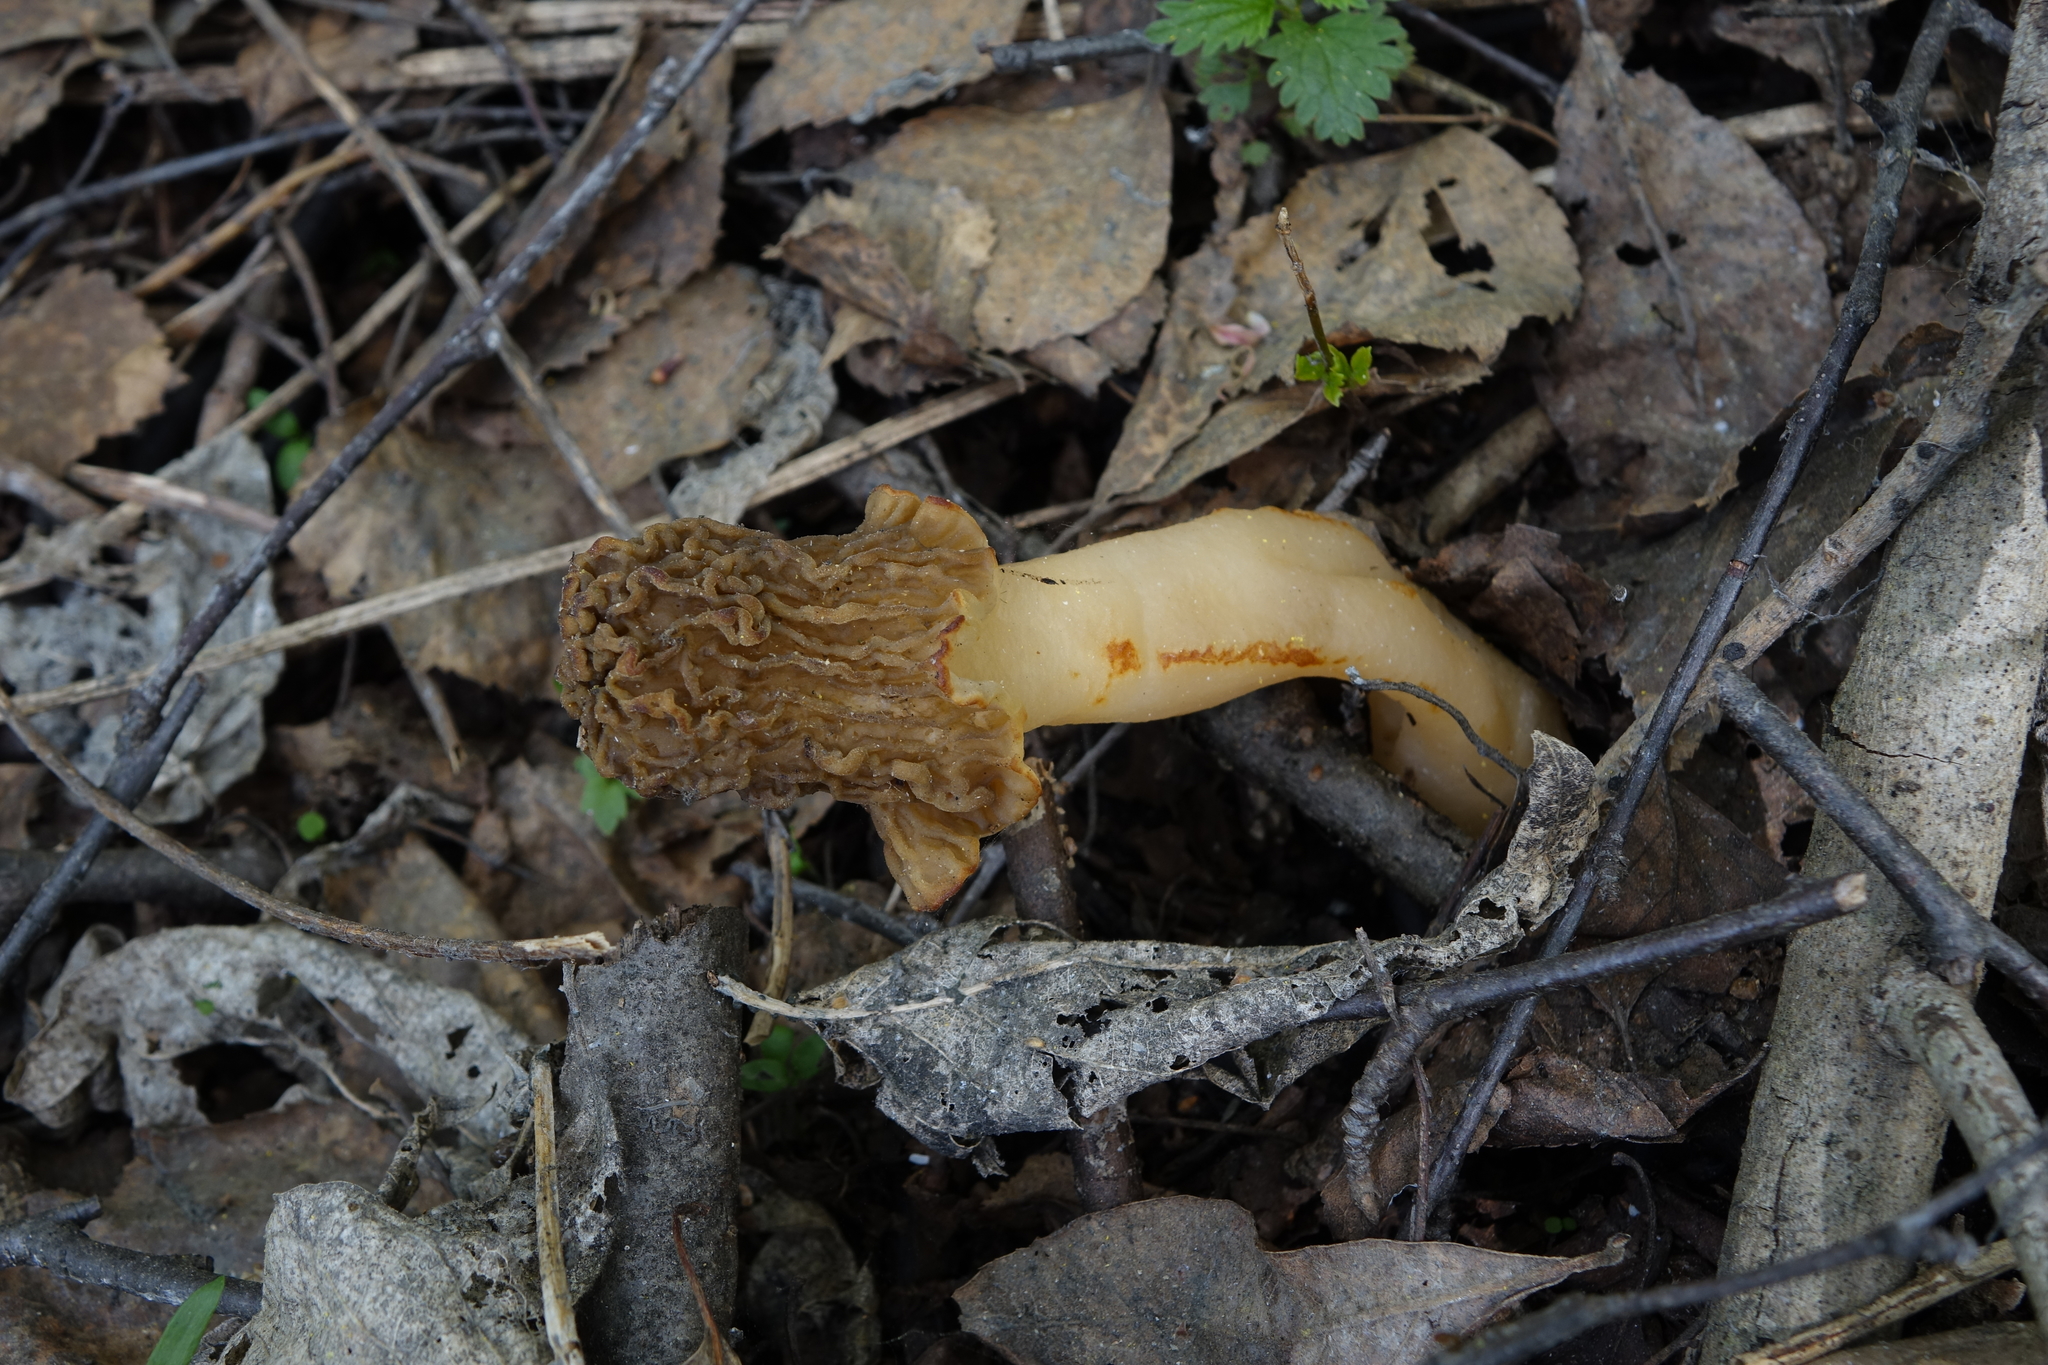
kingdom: Fungi
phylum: Ascomycota
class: Pezizomycetes
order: Pezizales
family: Morchellaceae
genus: Verpa
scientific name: Verpa bohemica
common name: Wrinkled thimble morel
